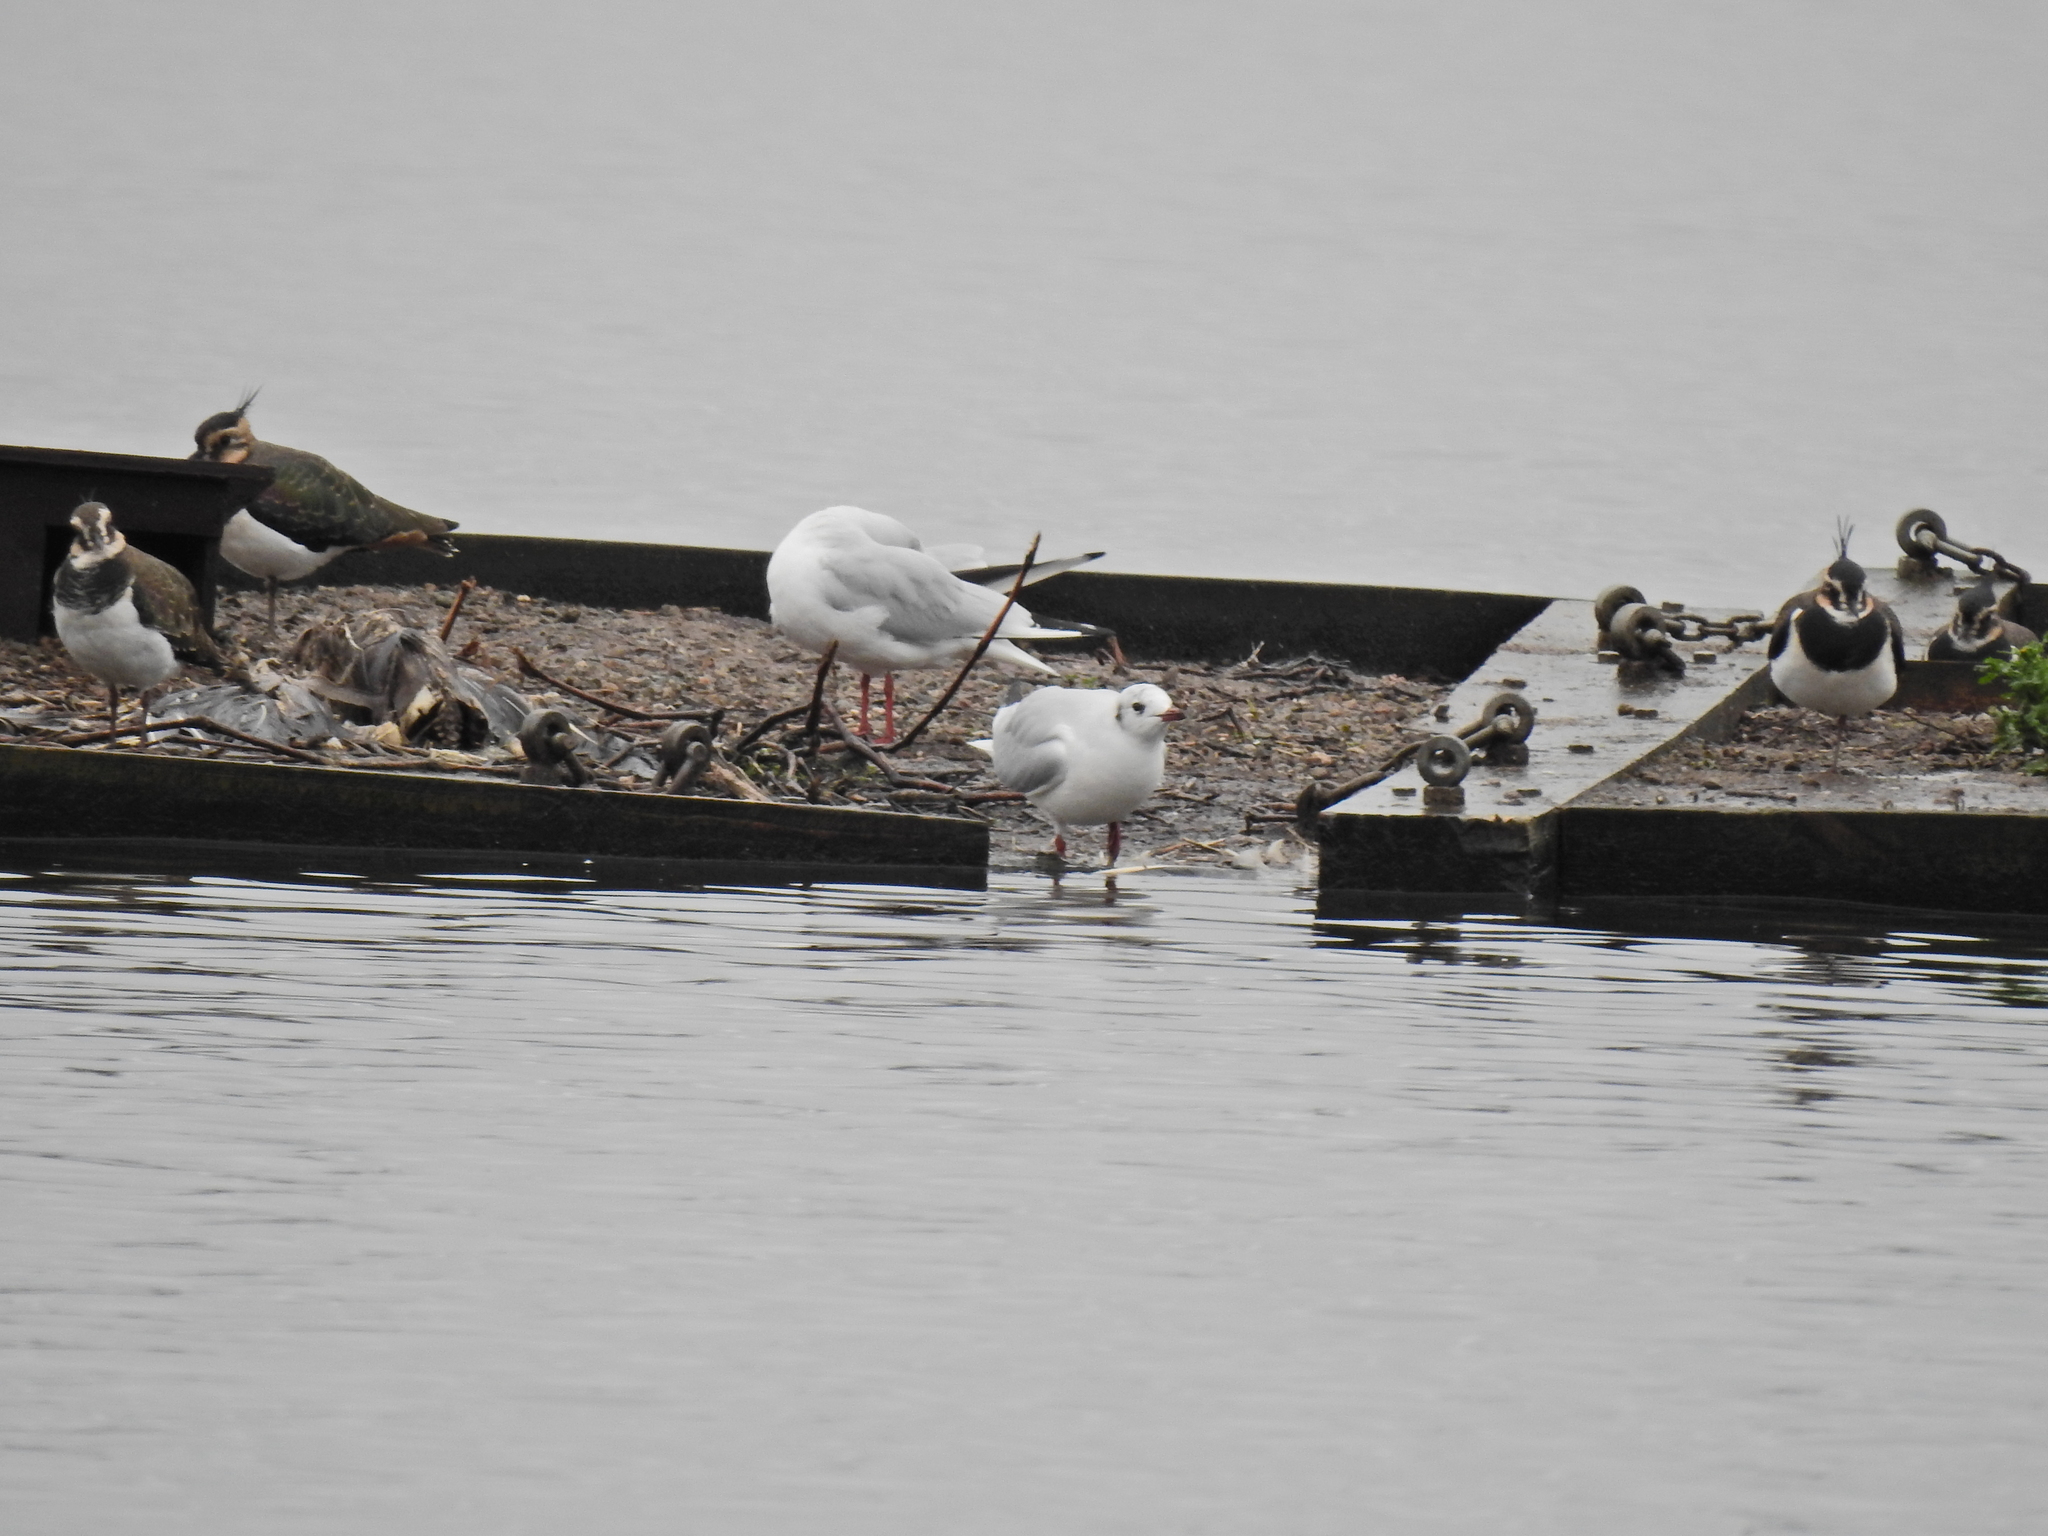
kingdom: Animalia
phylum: Chordata
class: Aves
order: Charadriiformes
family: Laridae
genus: Chroicocephalus
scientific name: Chroicocephalus ridibundus
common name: Black-headed gull
